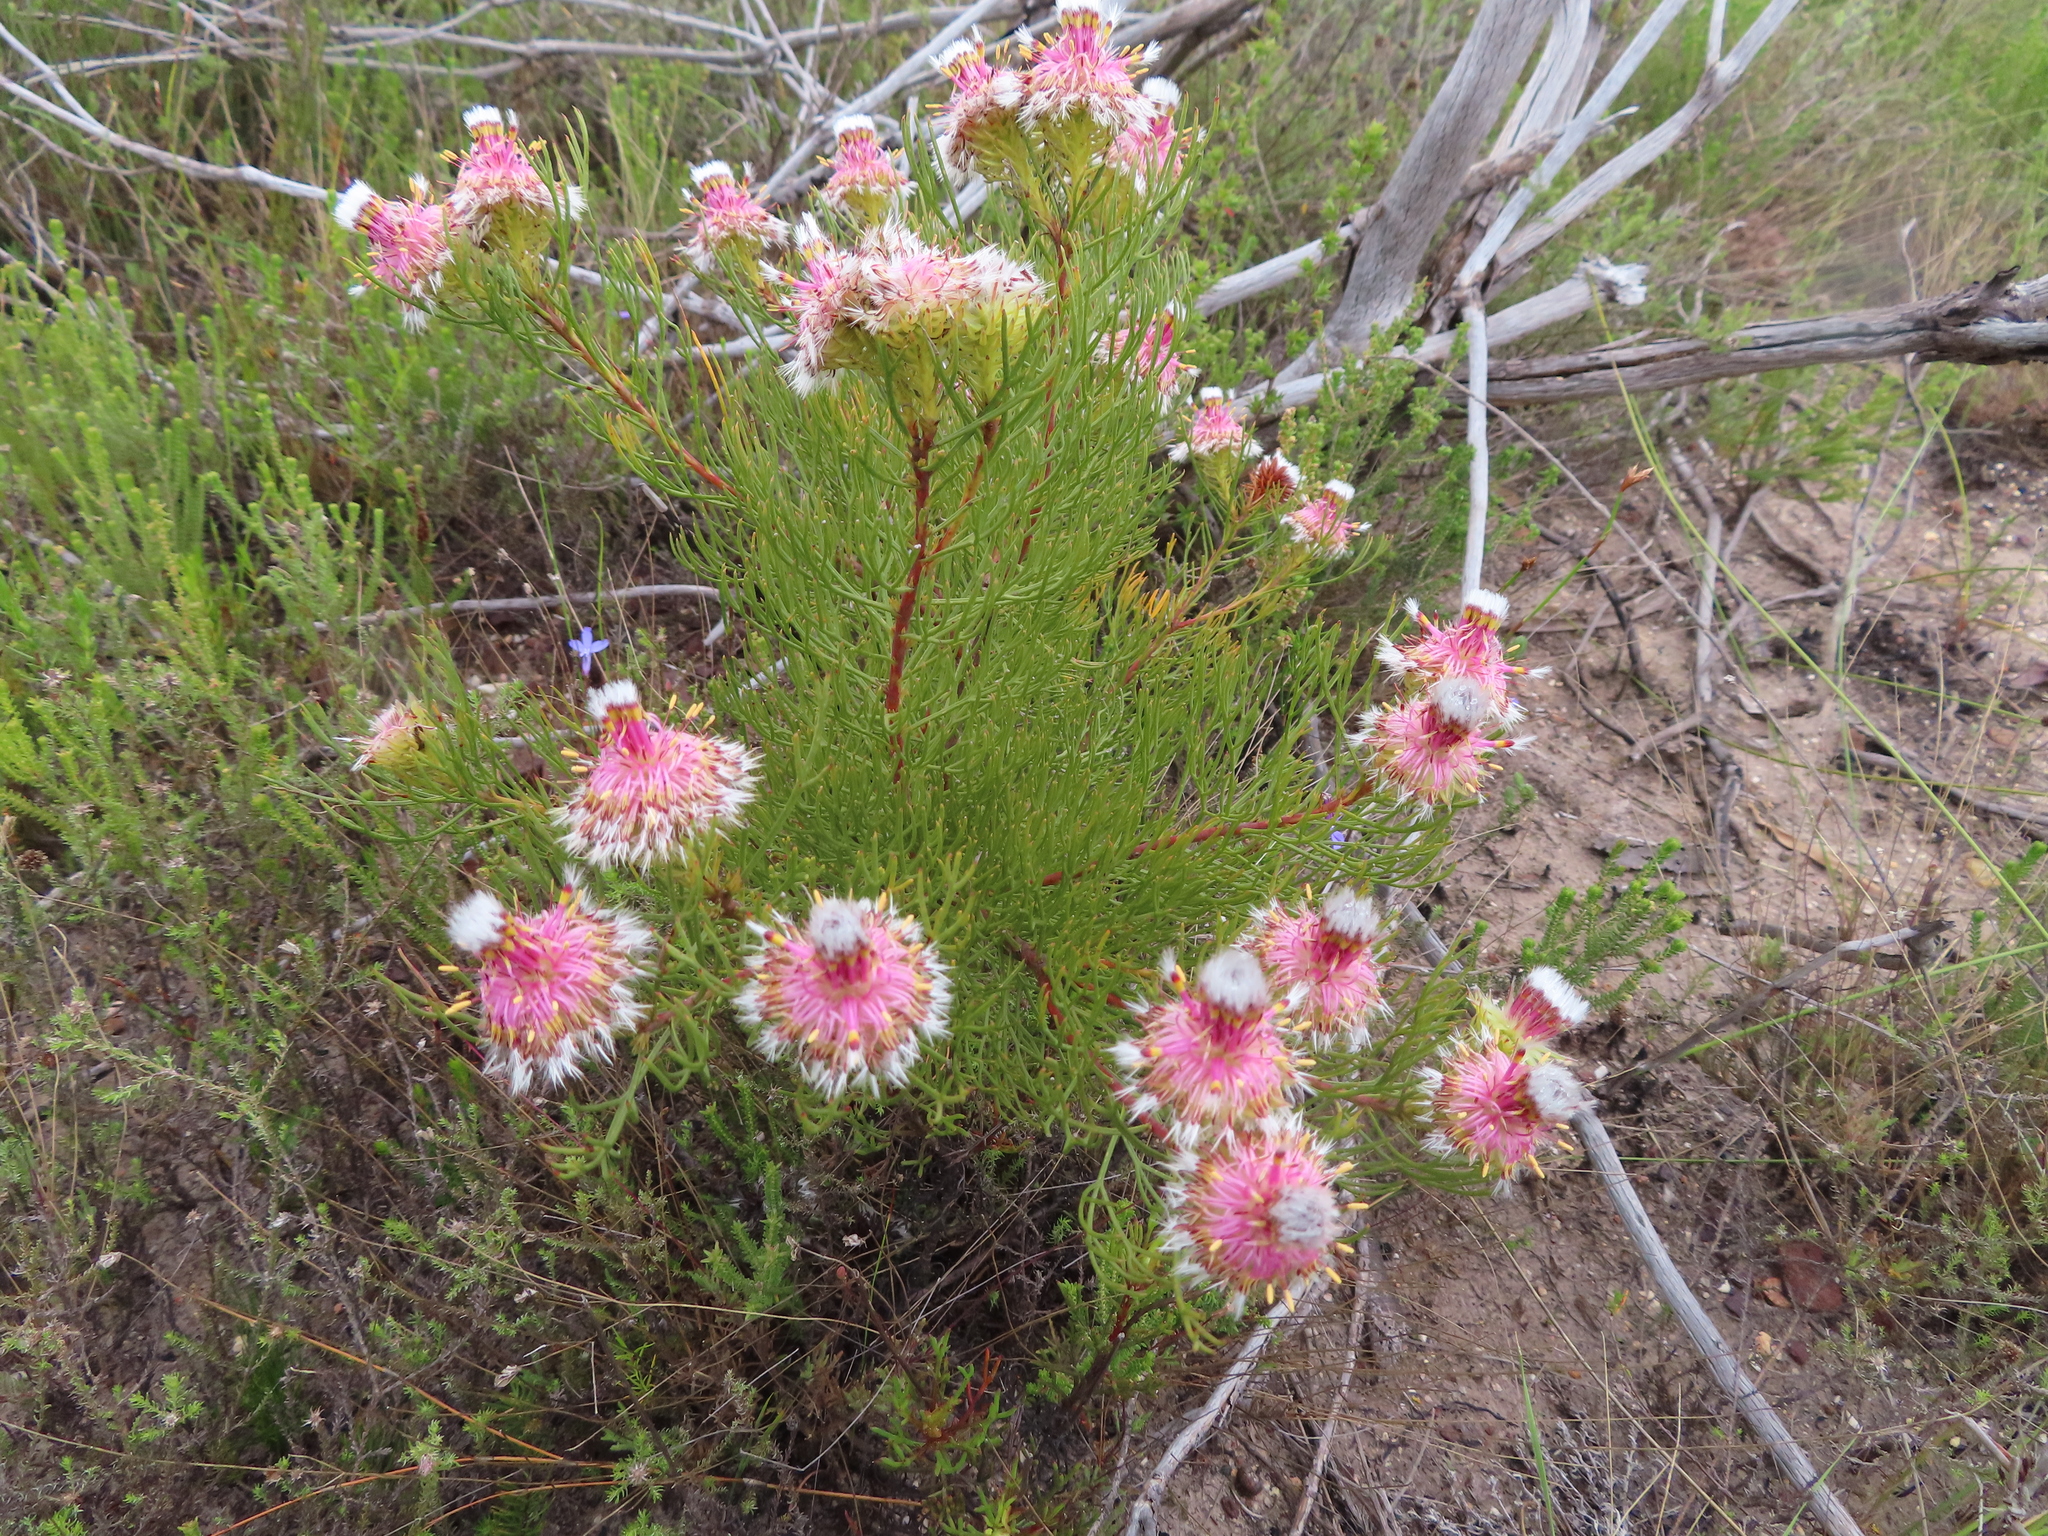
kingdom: Plantae
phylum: Tracheophyta
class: Magnoliopsida
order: Proteales
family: Proteaceae
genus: Serruria
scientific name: Serruria phylicoides
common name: Bearded spiderhead
